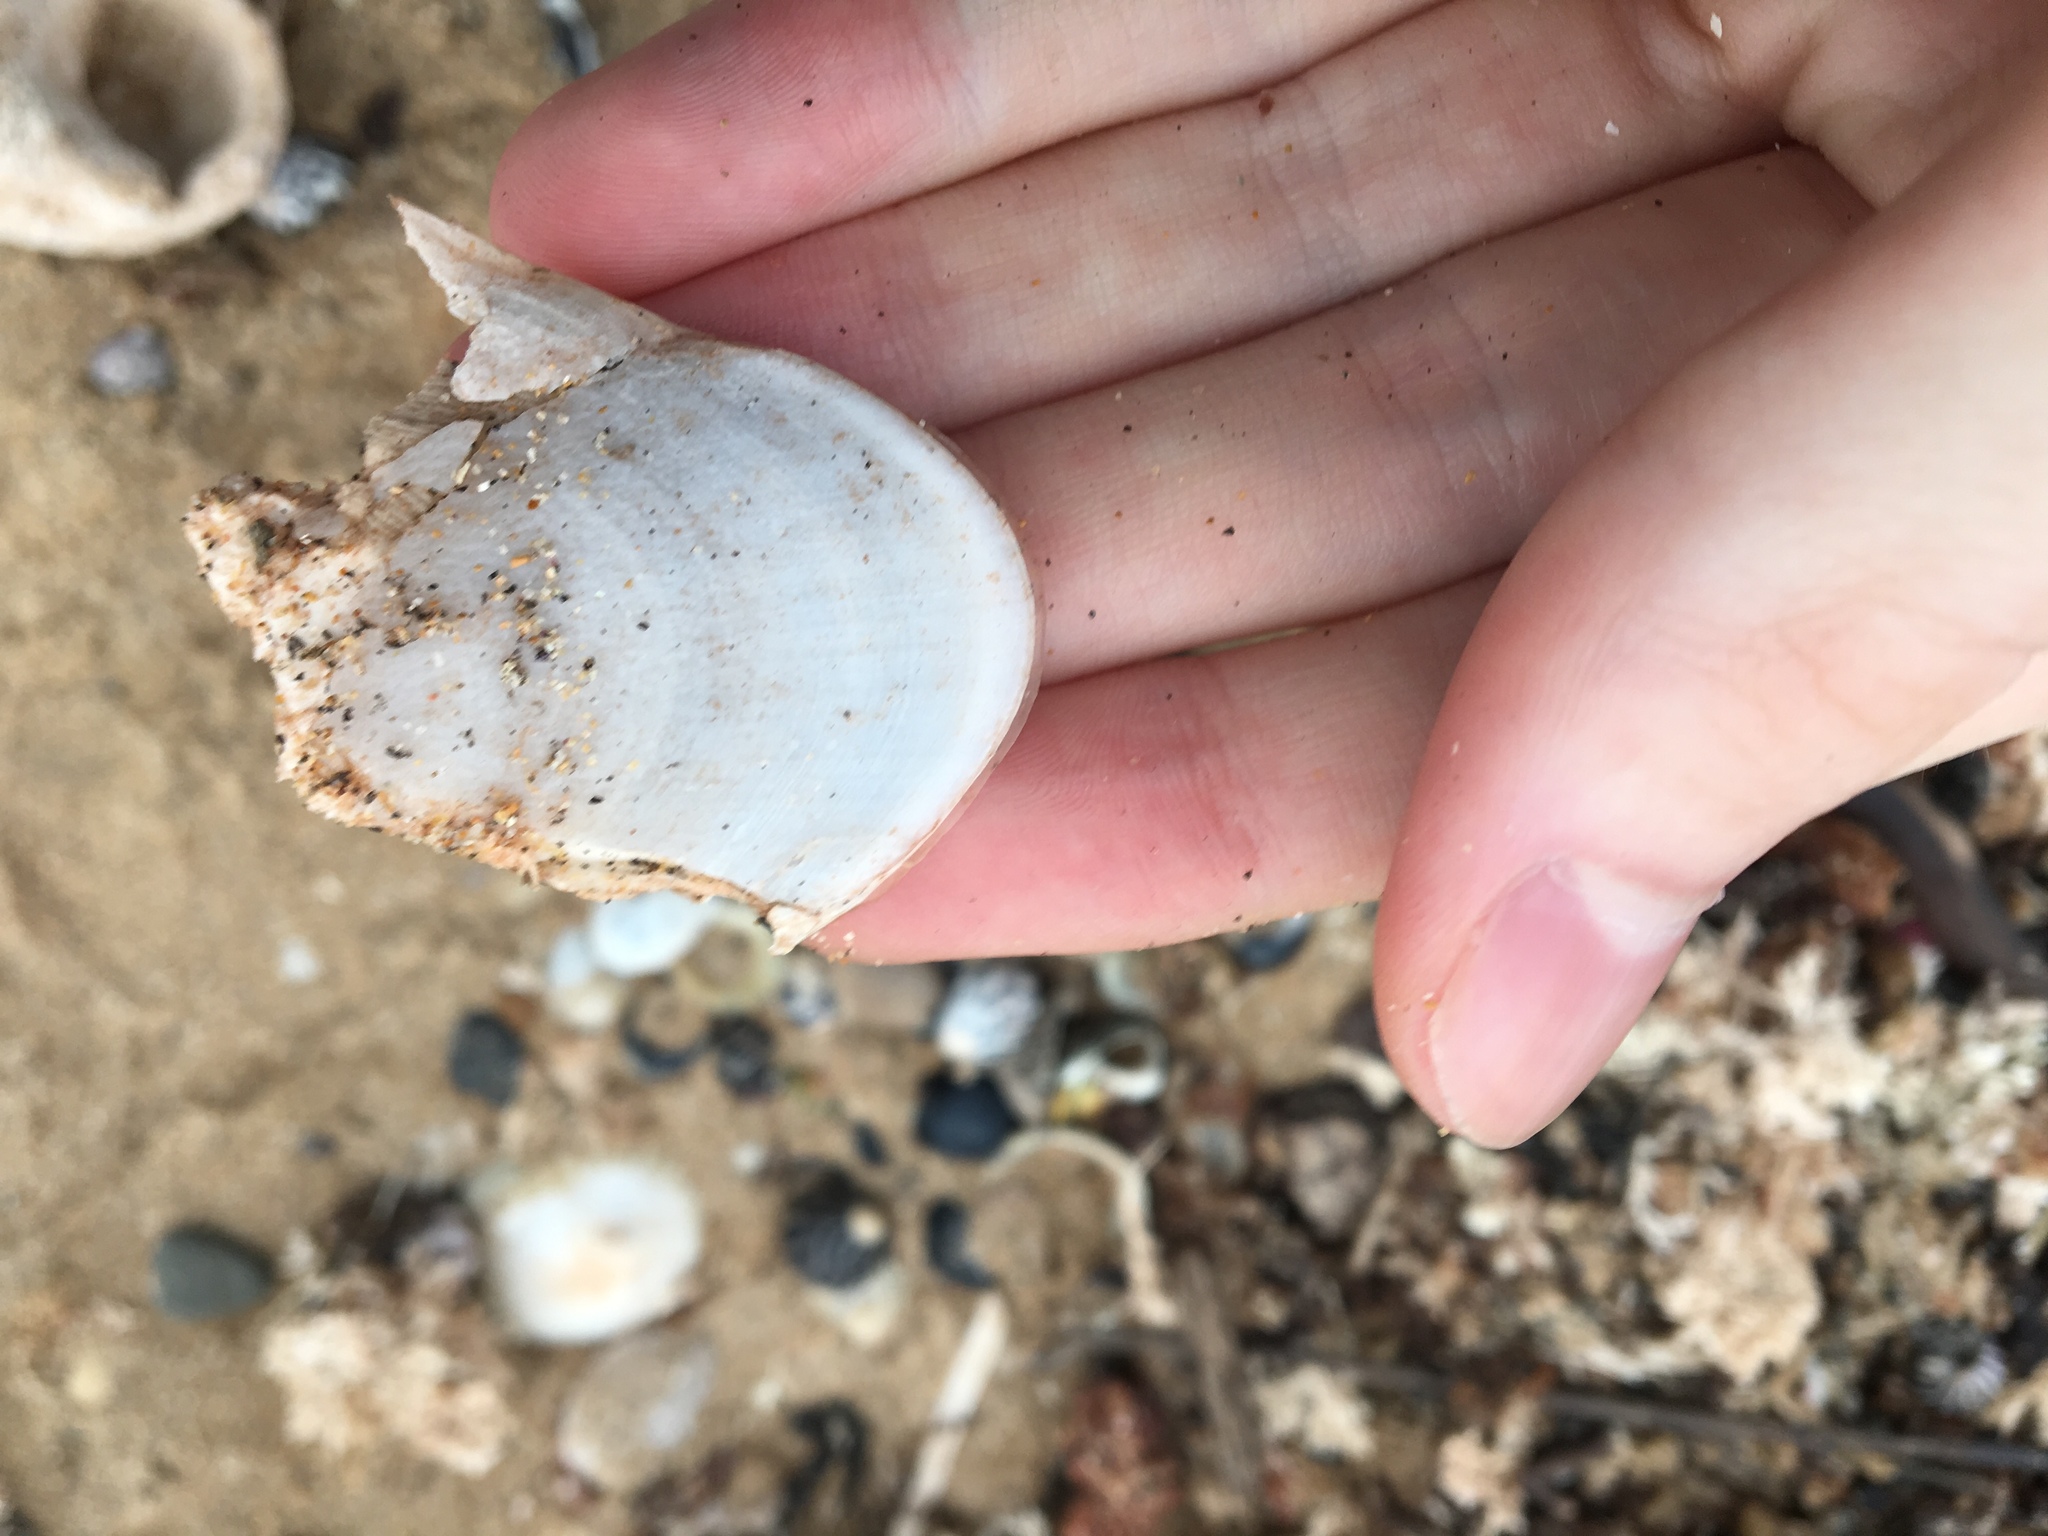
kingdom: Animalia
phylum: Mollusca
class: Cephalopoda
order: Sepiida
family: Sepiidae
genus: Ascarosepion
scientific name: Ascarosepion mestus
